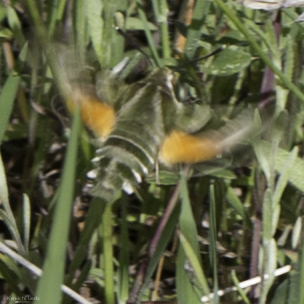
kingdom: Animalia
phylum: Arthropoda
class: Insecta
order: Lepidoptera
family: Sphingidae
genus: Proserpinus
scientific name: Proserpinus clarkiae
